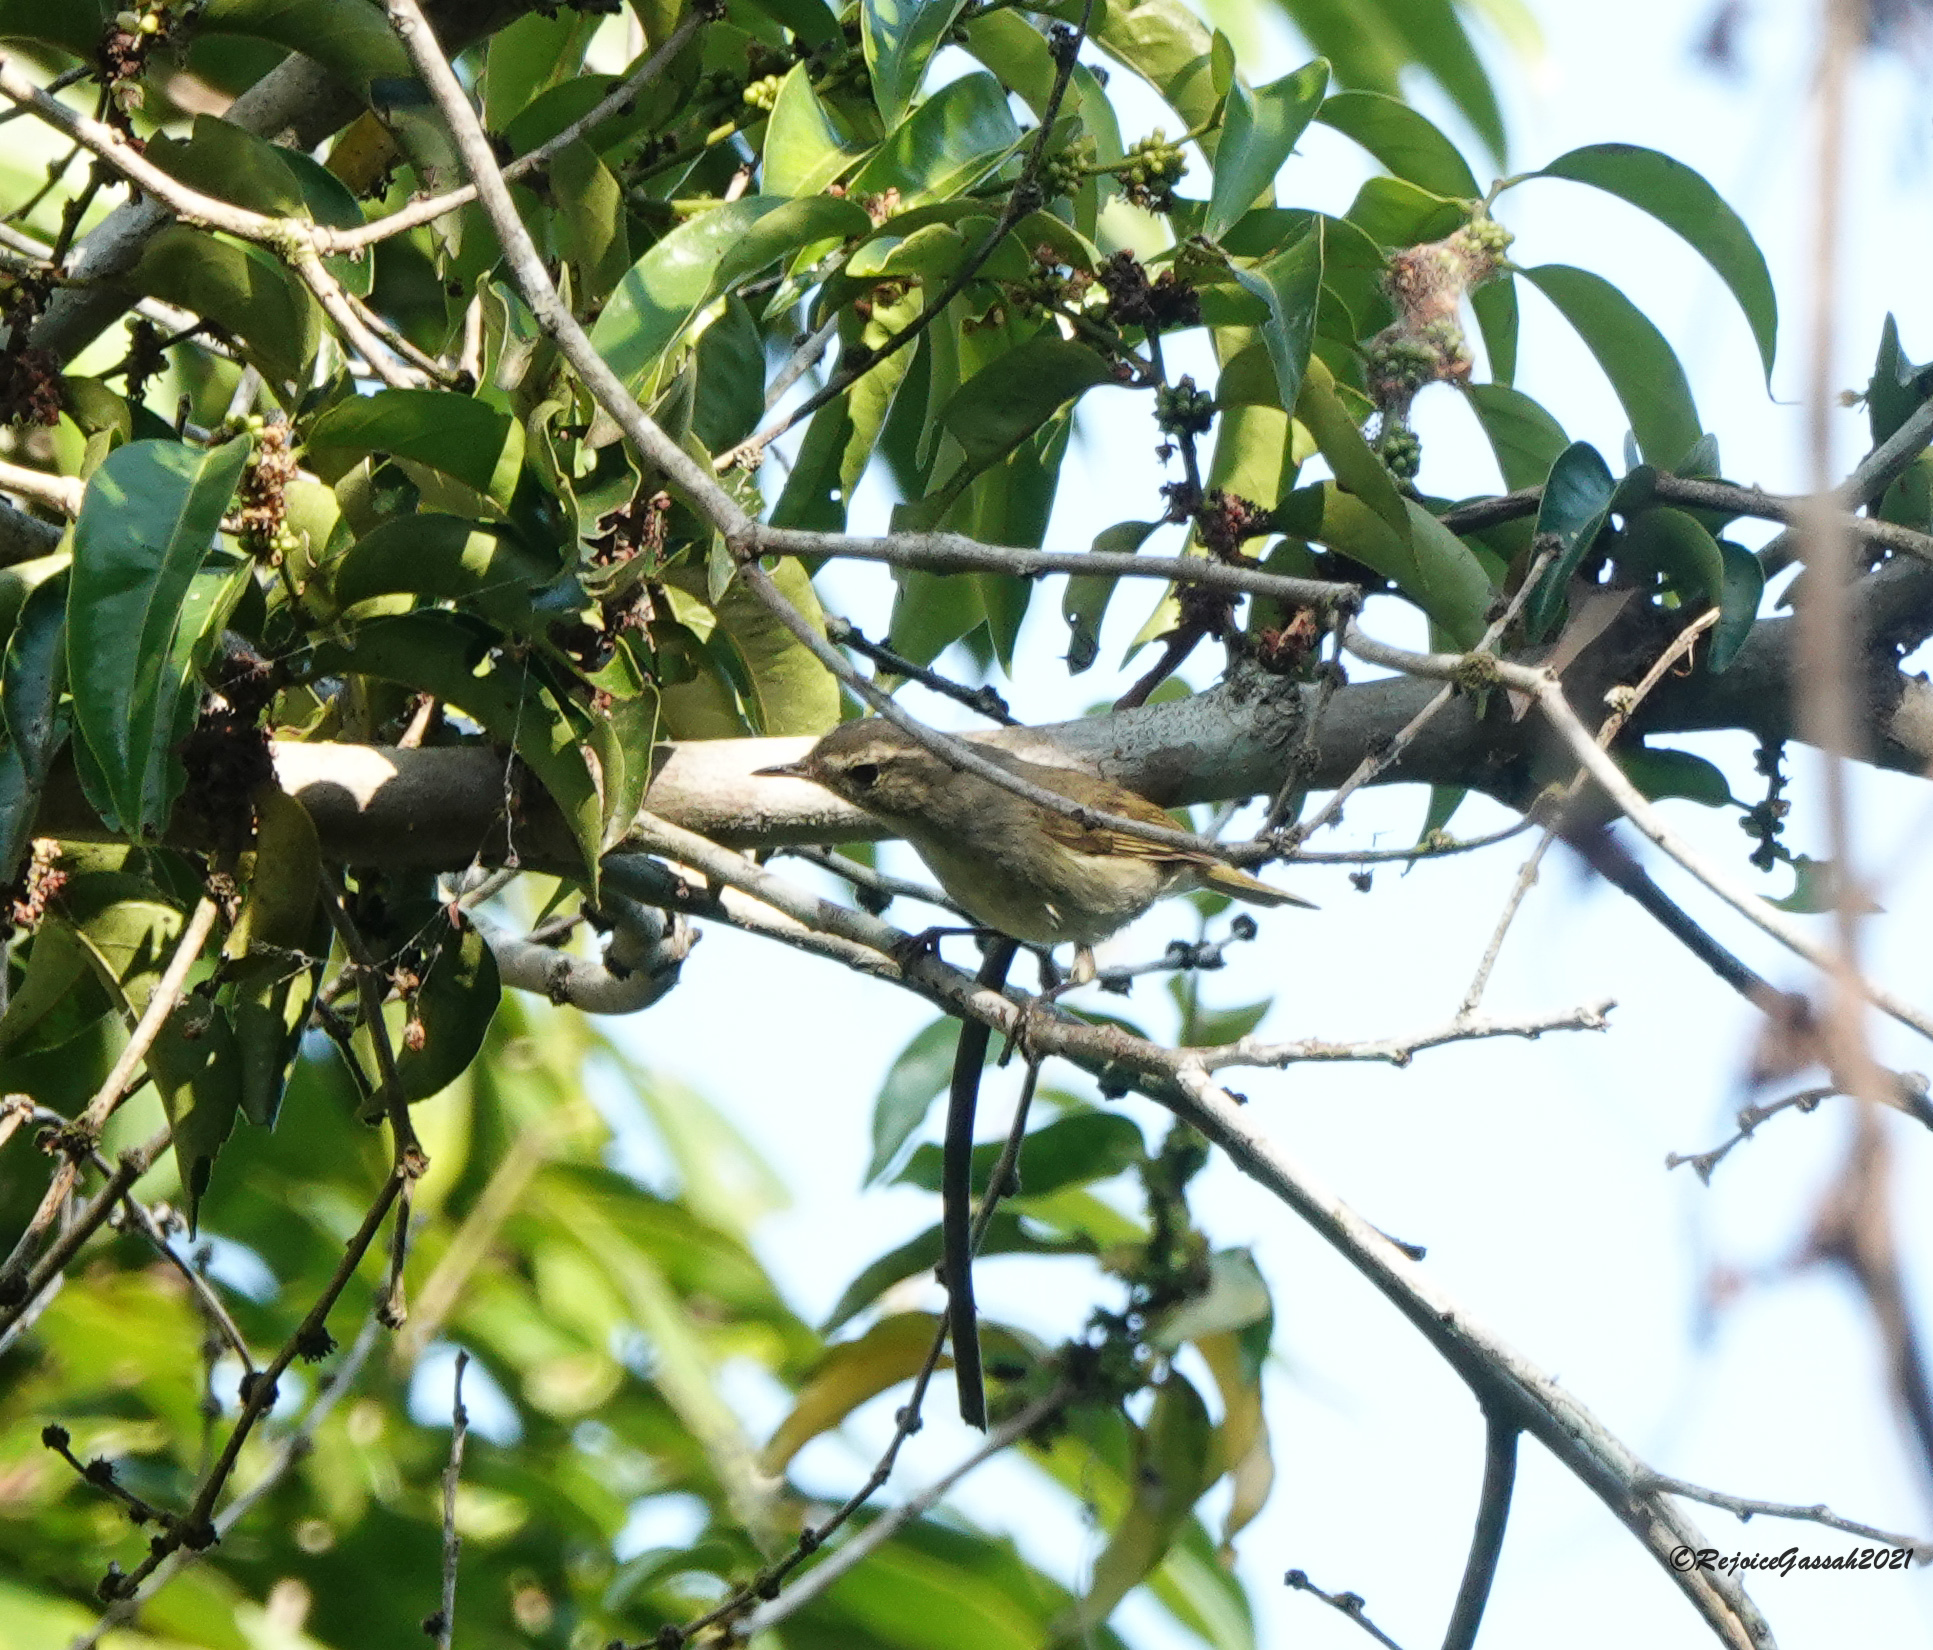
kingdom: Animalia
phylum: Chordata
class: Aves
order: Passeriformes
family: Phylloscopidae
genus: Phylloscopus
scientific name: Phylloscopus inornatus
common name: Yellow-browed warbler
